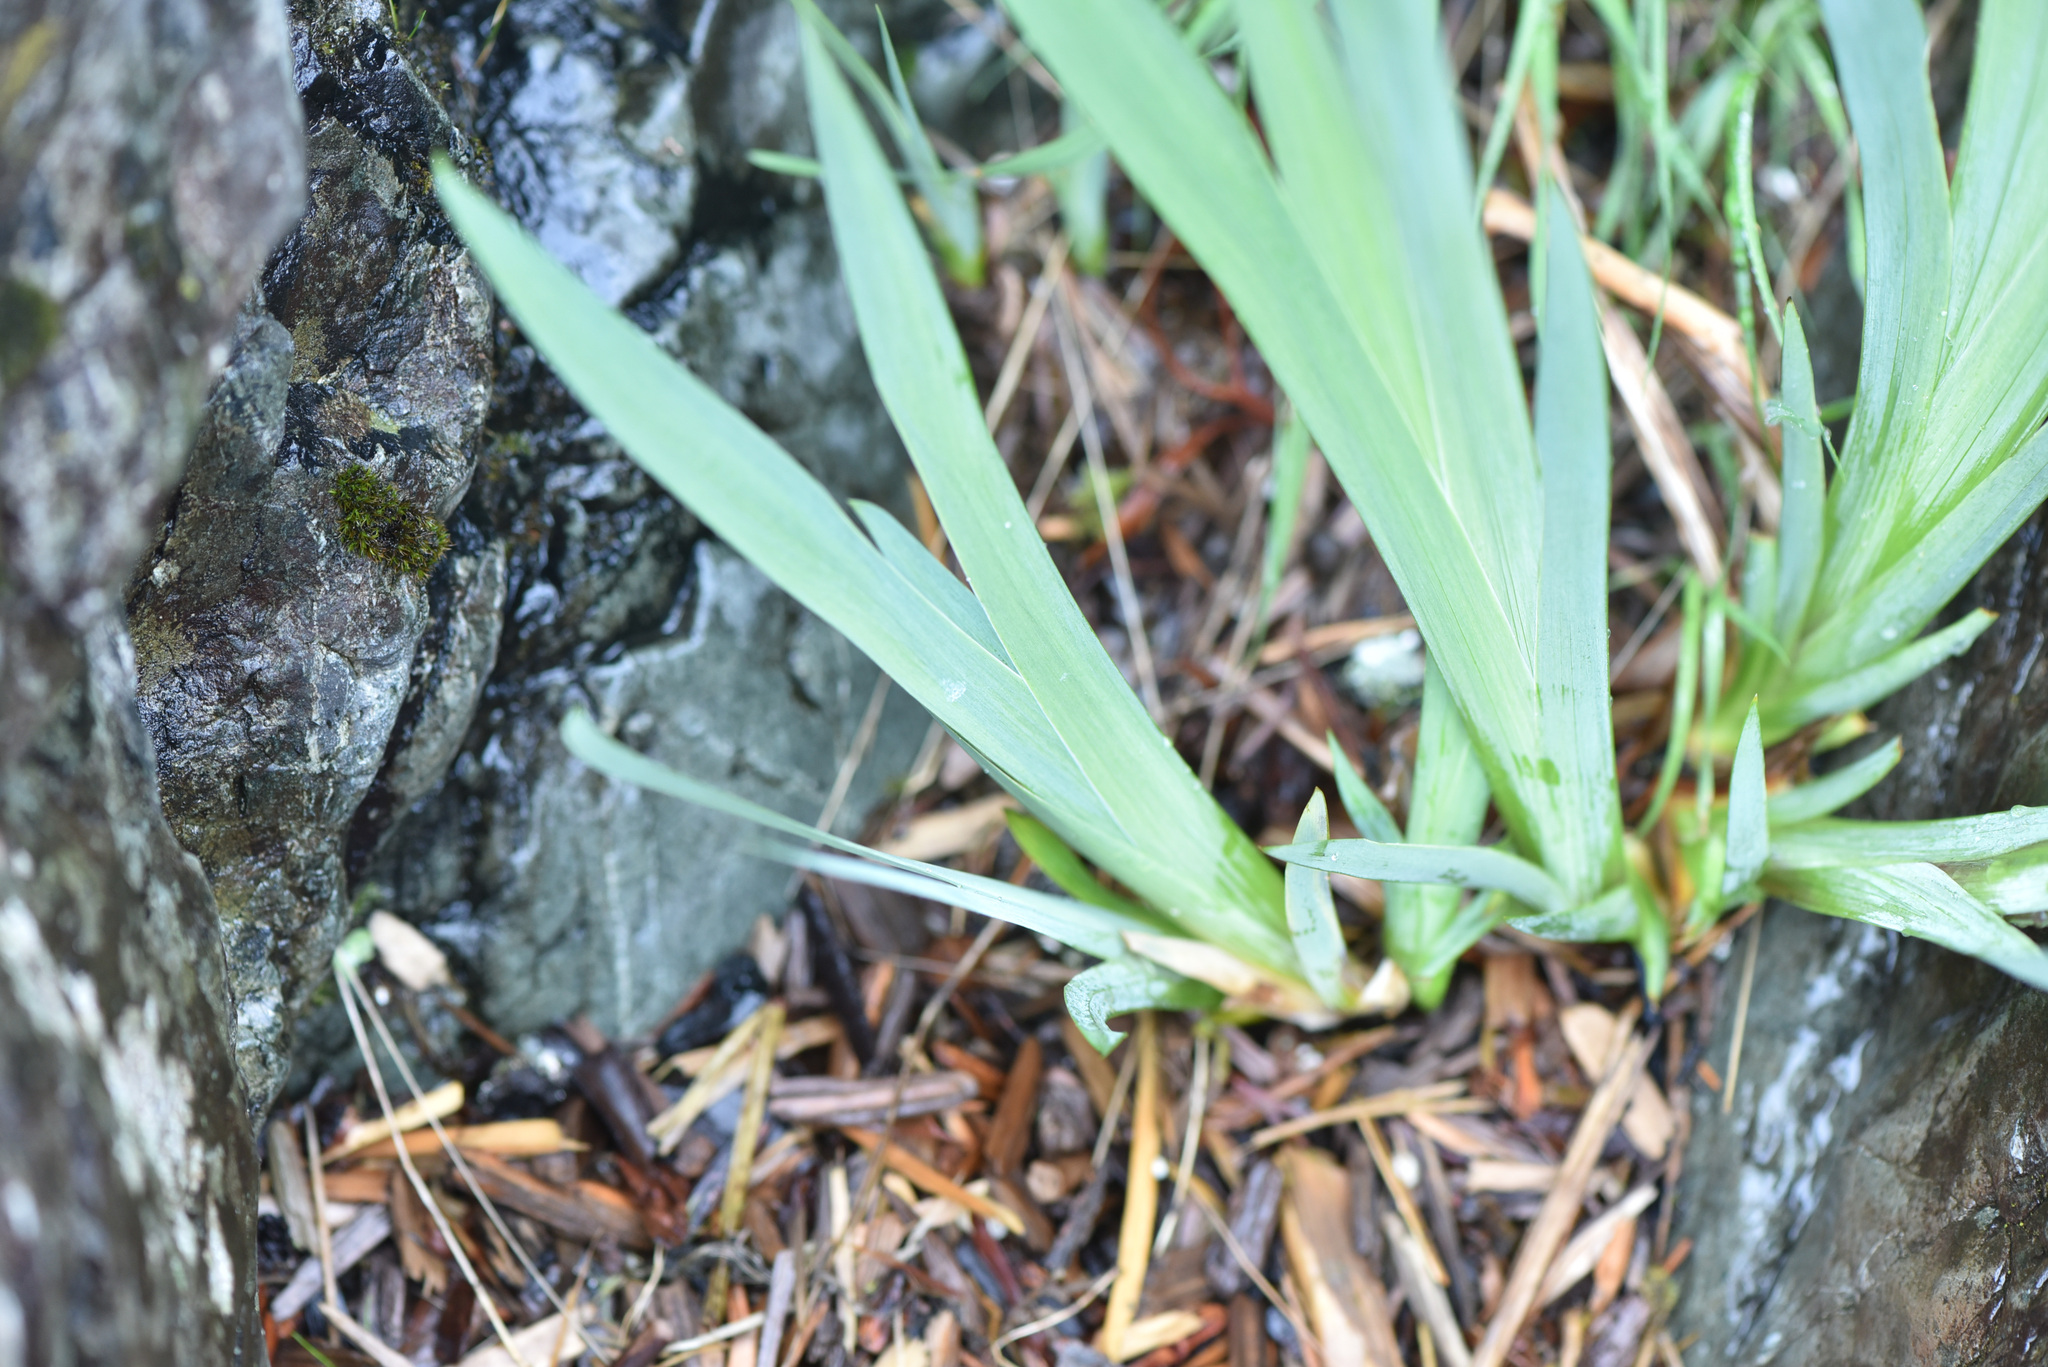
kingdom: Plantae
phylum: Tracheophyta
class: Liliopsida
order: Asparagales
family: Iridaceae
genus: Iris
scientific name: Iris pseudacorus
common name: Yellow flag
